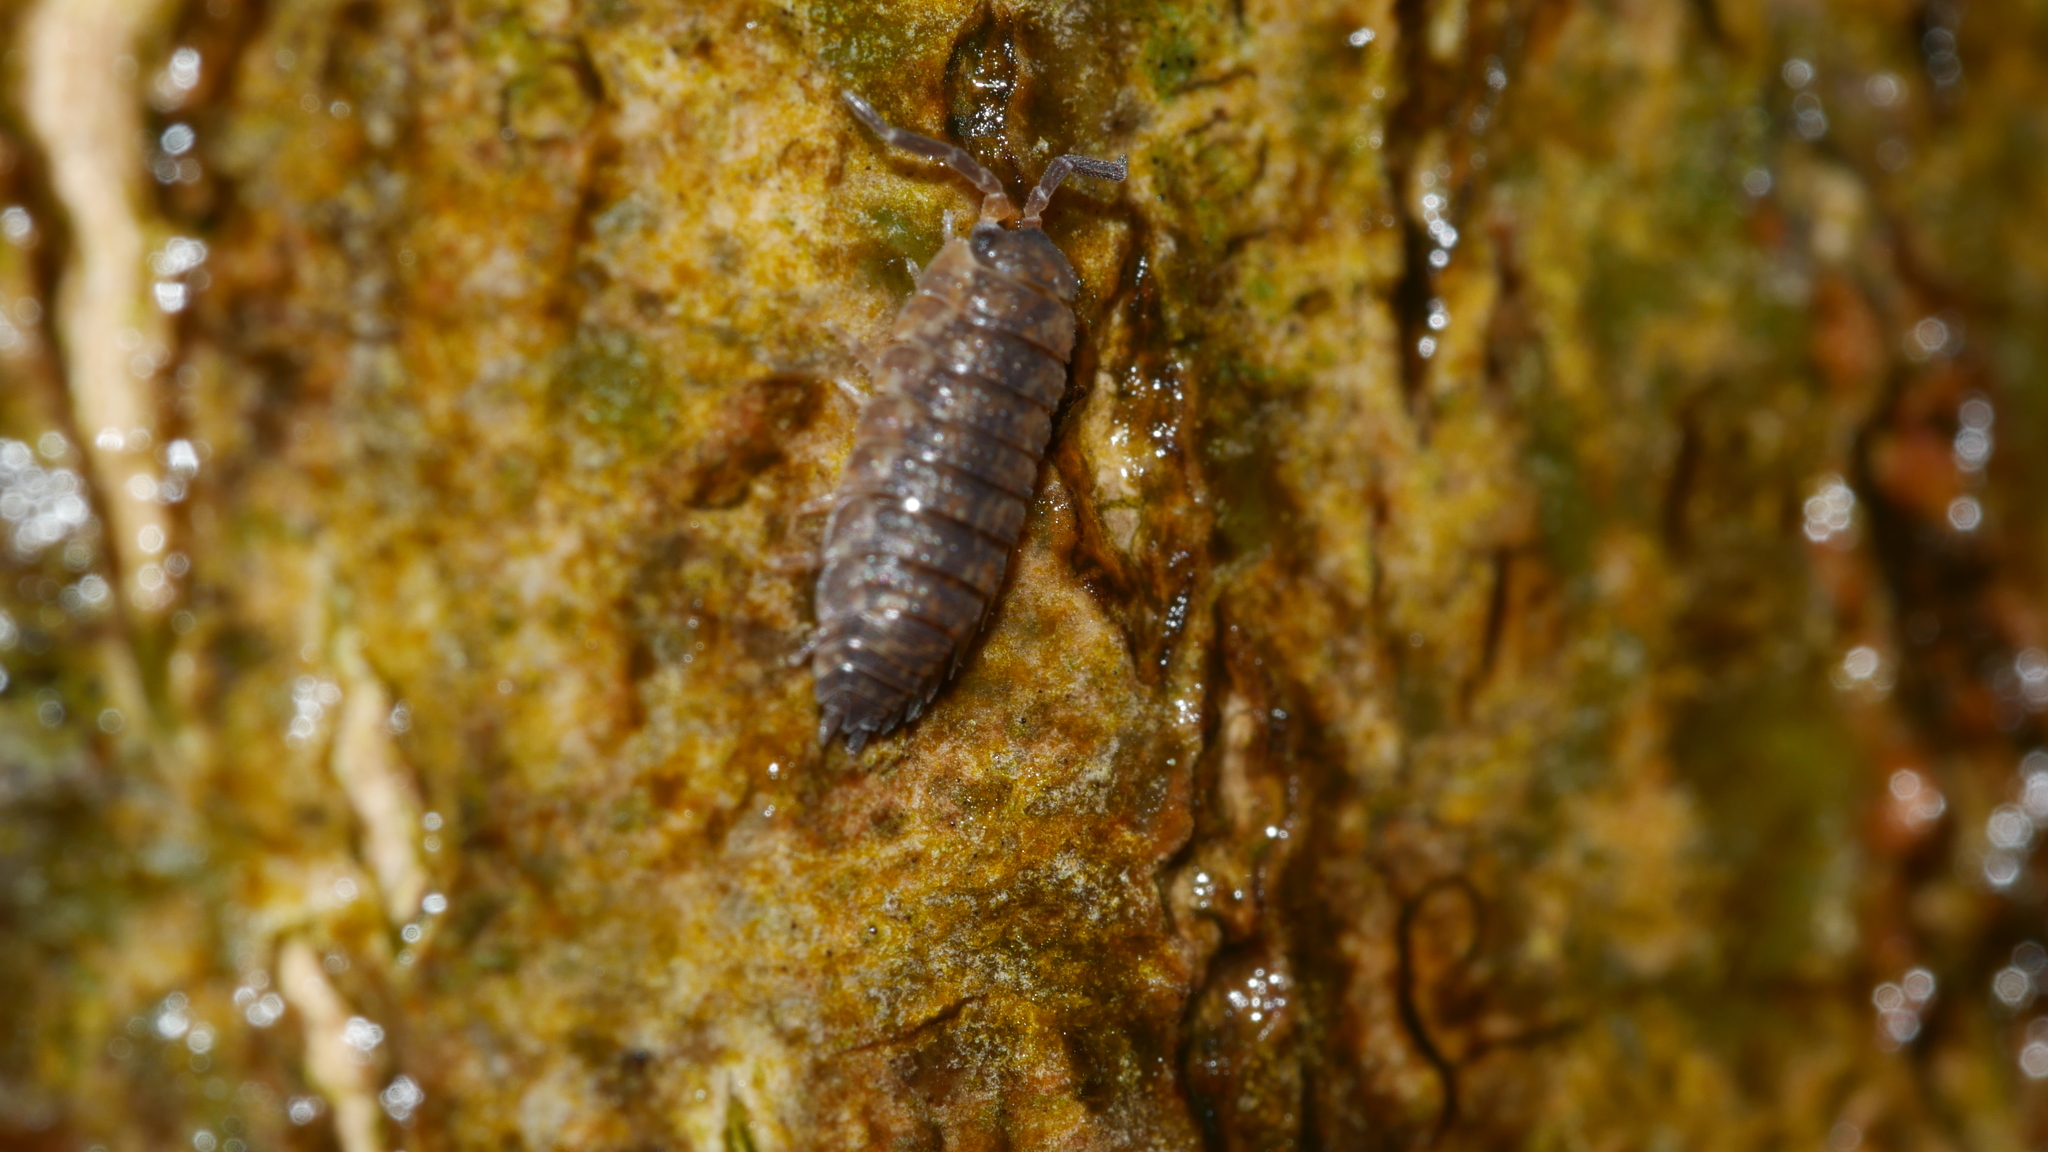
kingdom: Animalia
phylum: Arthropoda
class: Malacostraca
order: Isopoda
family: Porcellionidae
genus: Porcellio
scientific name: Porcellio scaber
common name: Common rough woodlouse
